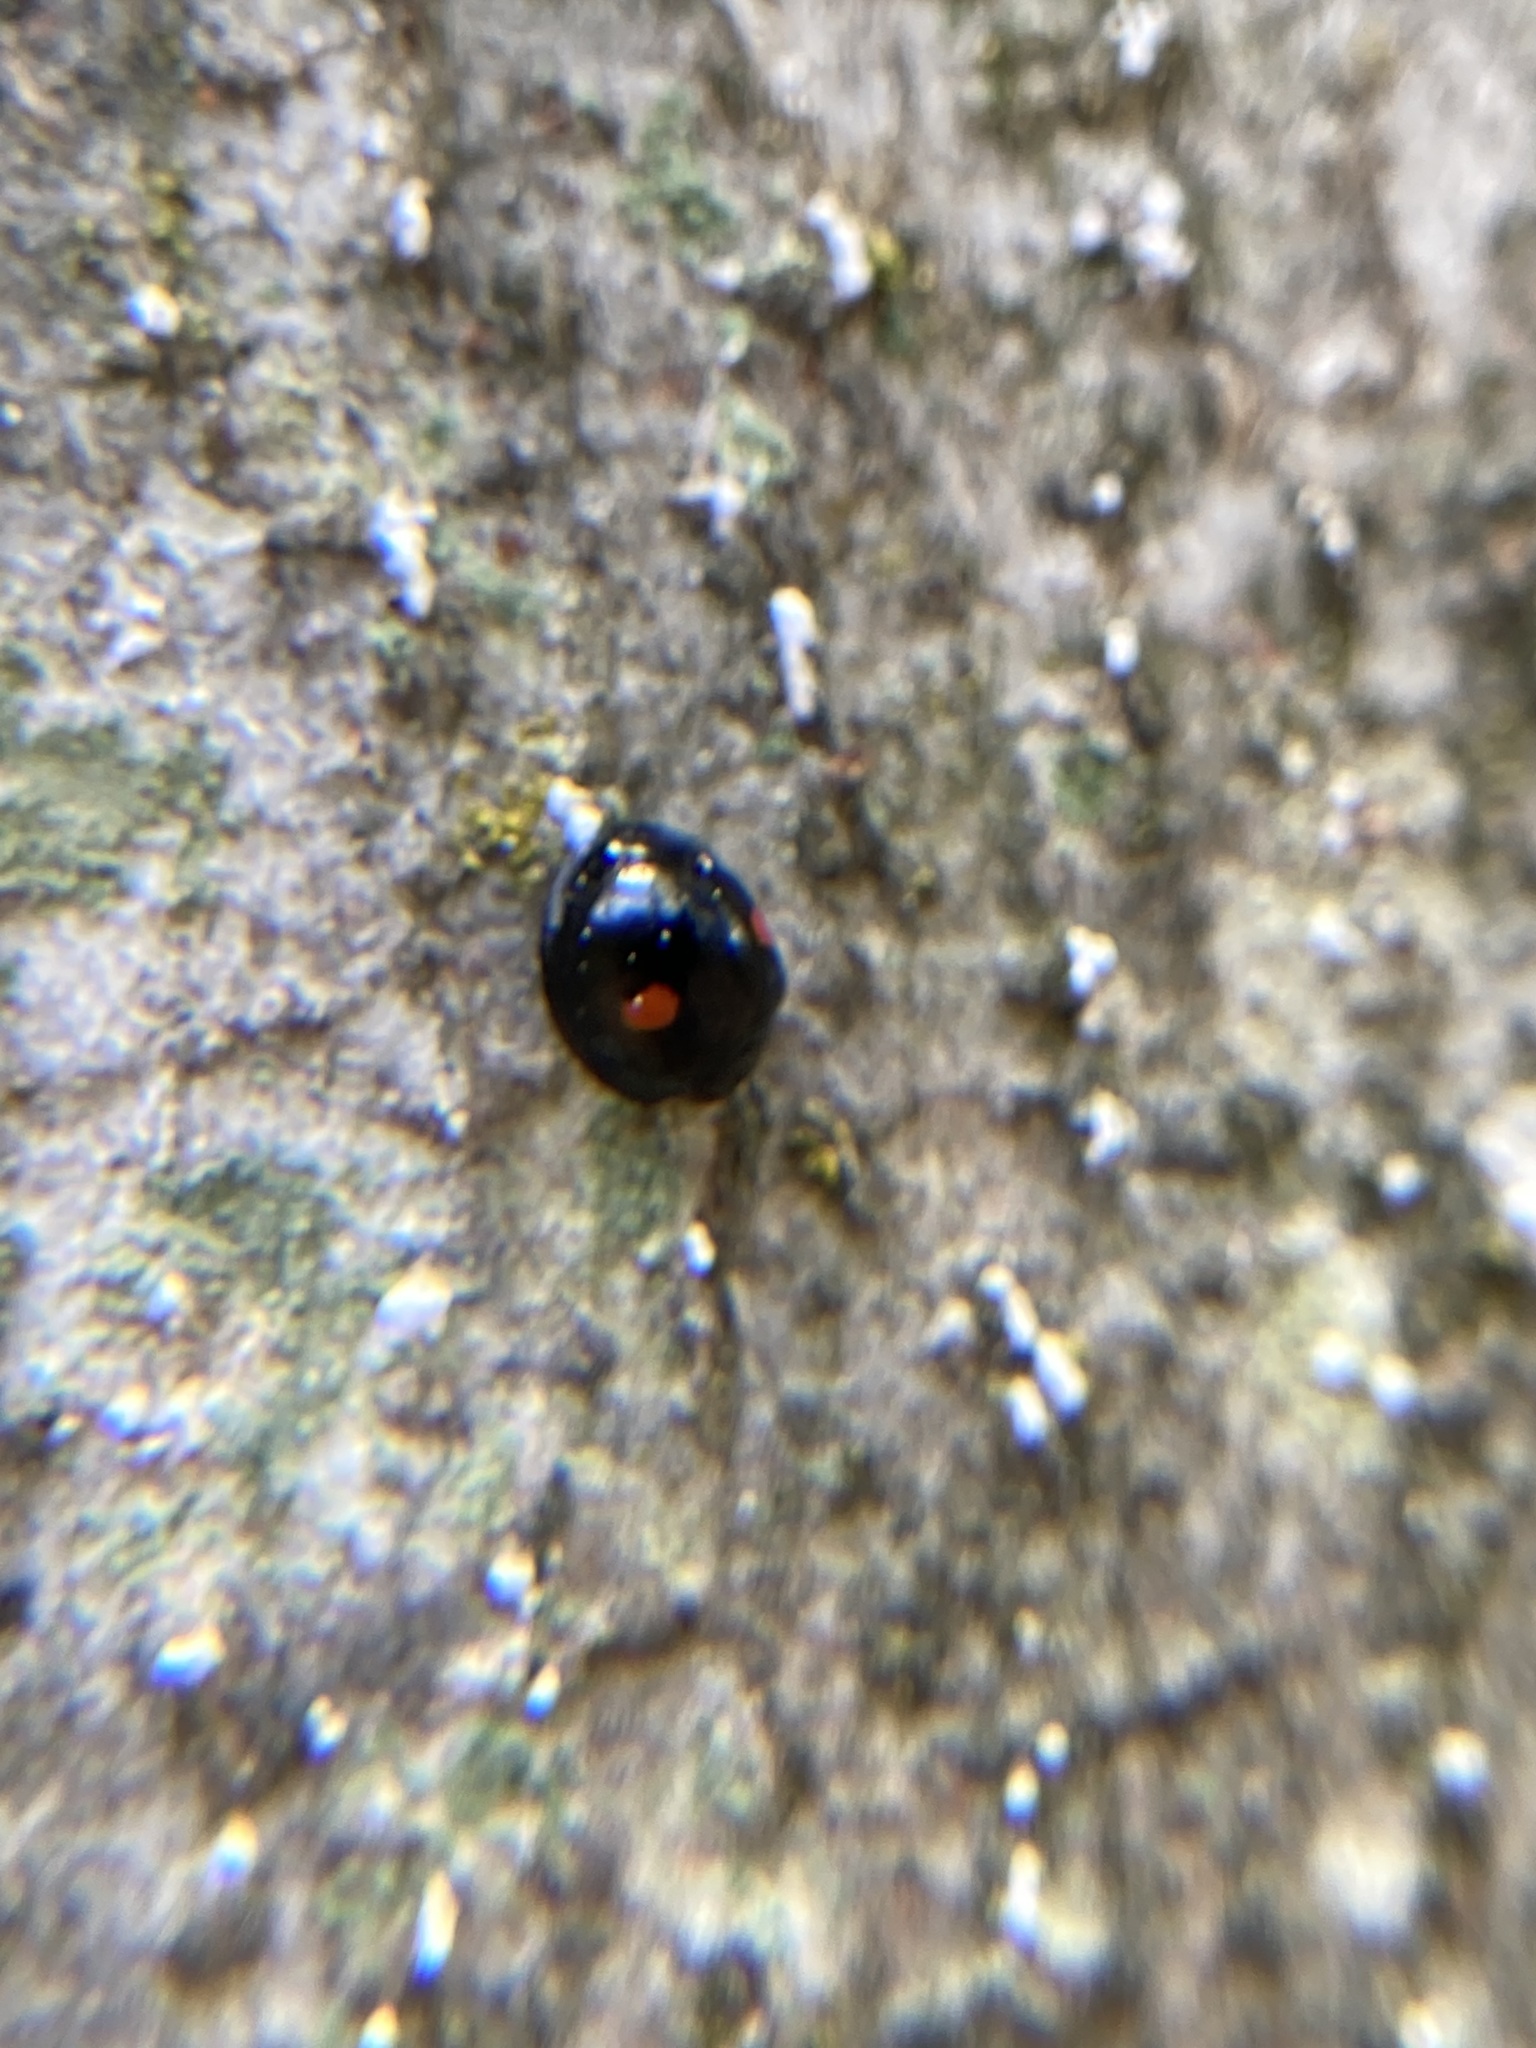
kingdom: Animalia
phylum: Arthropoda
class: Insecta
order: Coleoptera
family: Coccinellidae
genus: Chilocorus
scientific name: Chilocorus stigma
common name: Twicestabbed lady beetle
